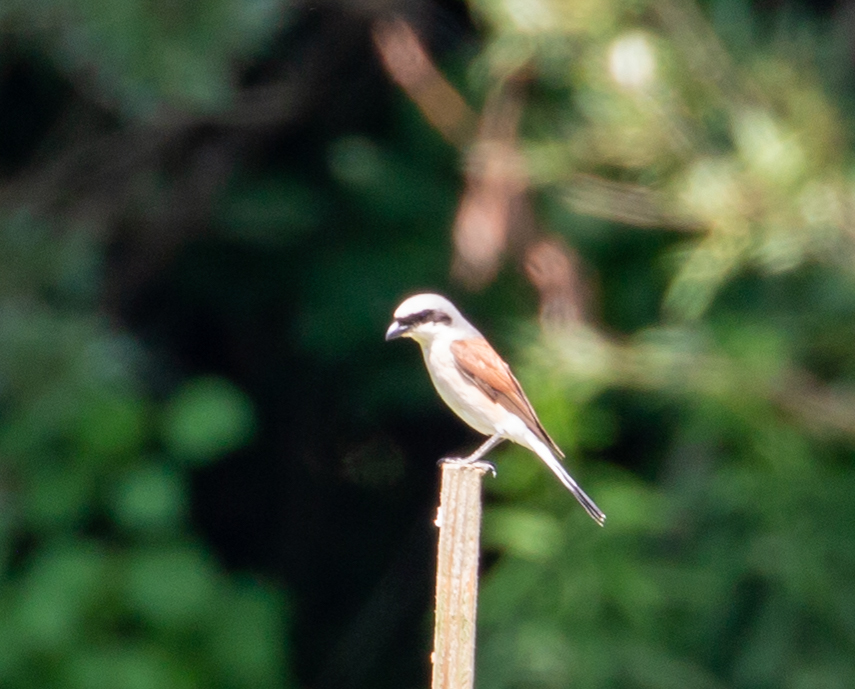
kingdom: Animalia
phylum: Chordata
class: Aves
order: Passeriformes
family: Laniidae
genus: Lanius
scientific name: Lanius collurio
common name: Red-backed shrike
